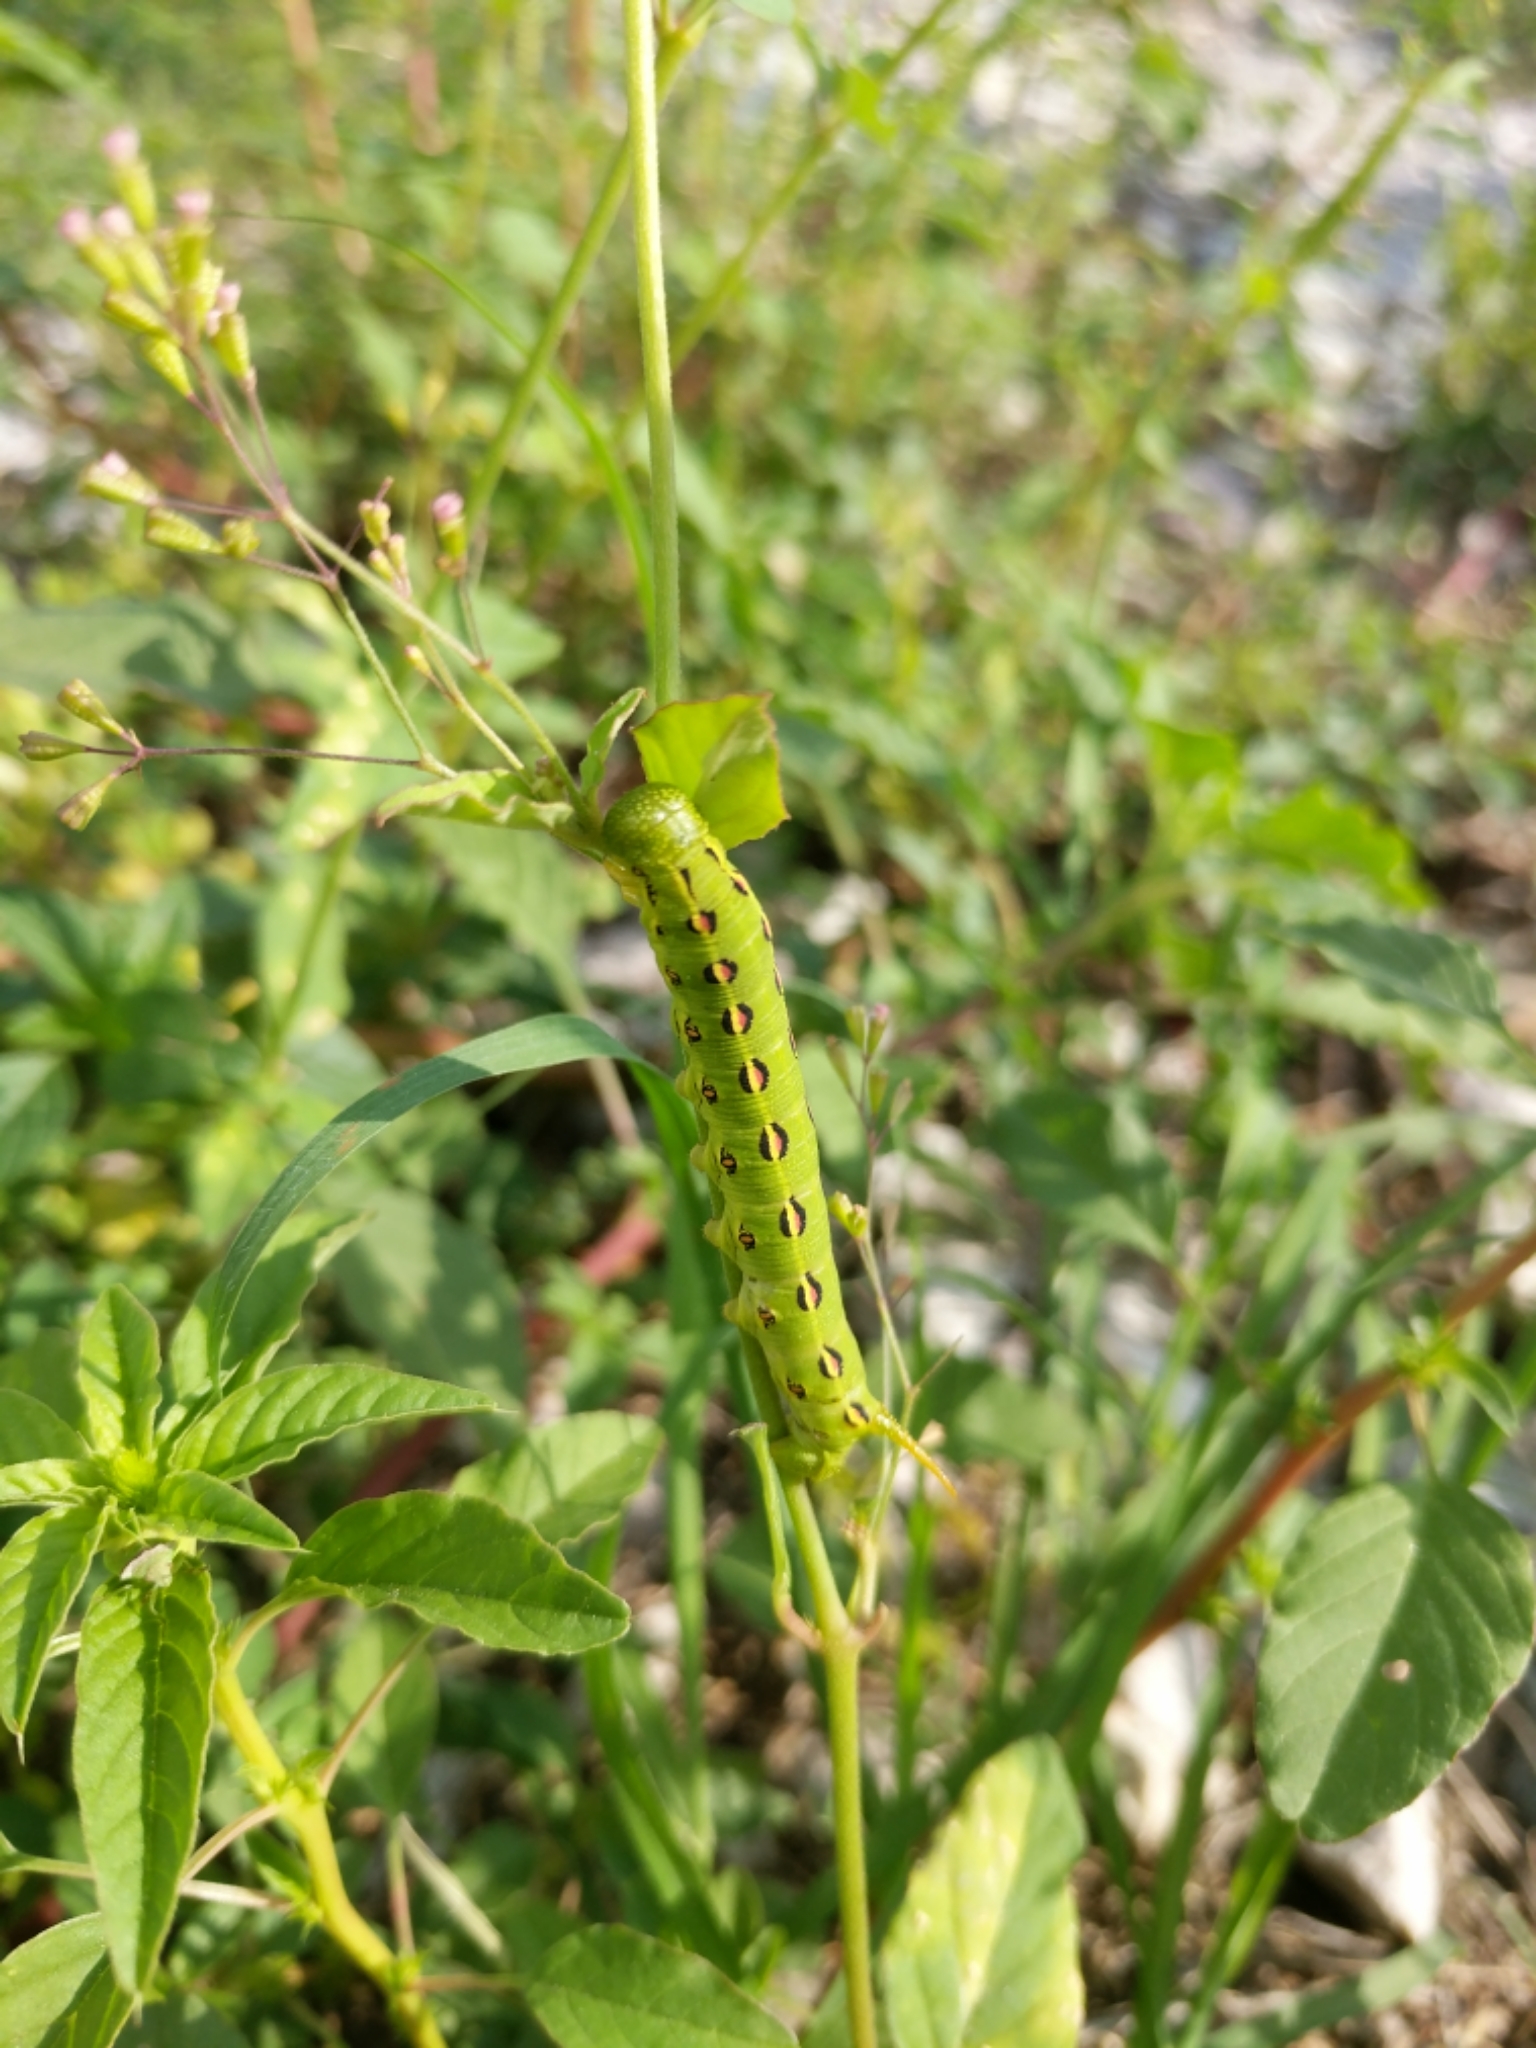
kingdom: Animalia
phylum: Arthropoda
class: Insecta
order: Lepidoptera
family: Sphingidae
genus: Hyles
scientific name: Hyles lineata
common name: White-lined sphinx
